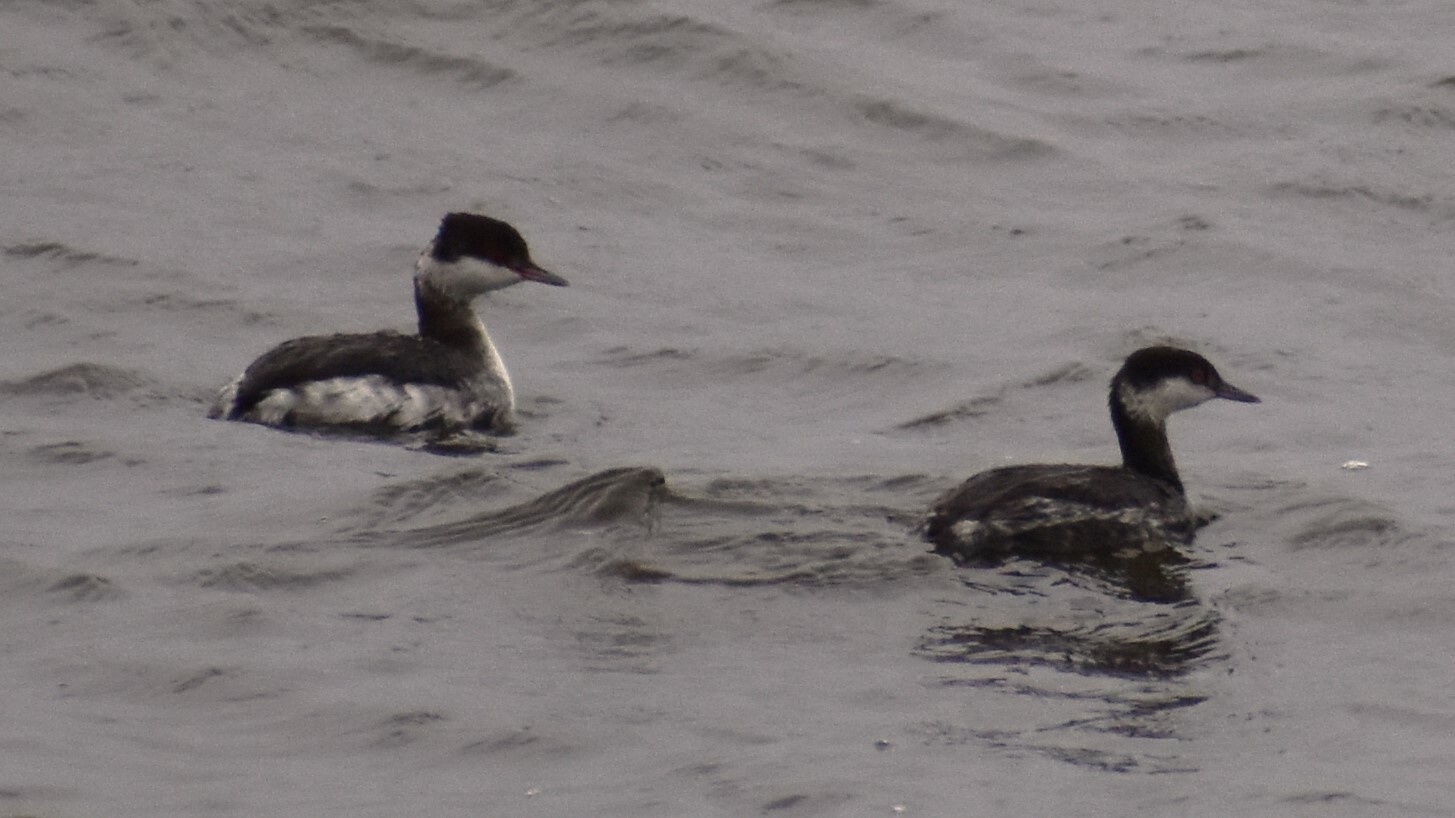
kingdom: Animalia
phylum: Chordata
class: Aves
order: Podicipediformes
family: Podicipedidae
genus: Podiceps
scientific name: Podiceps auritus
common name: Horned grebe
